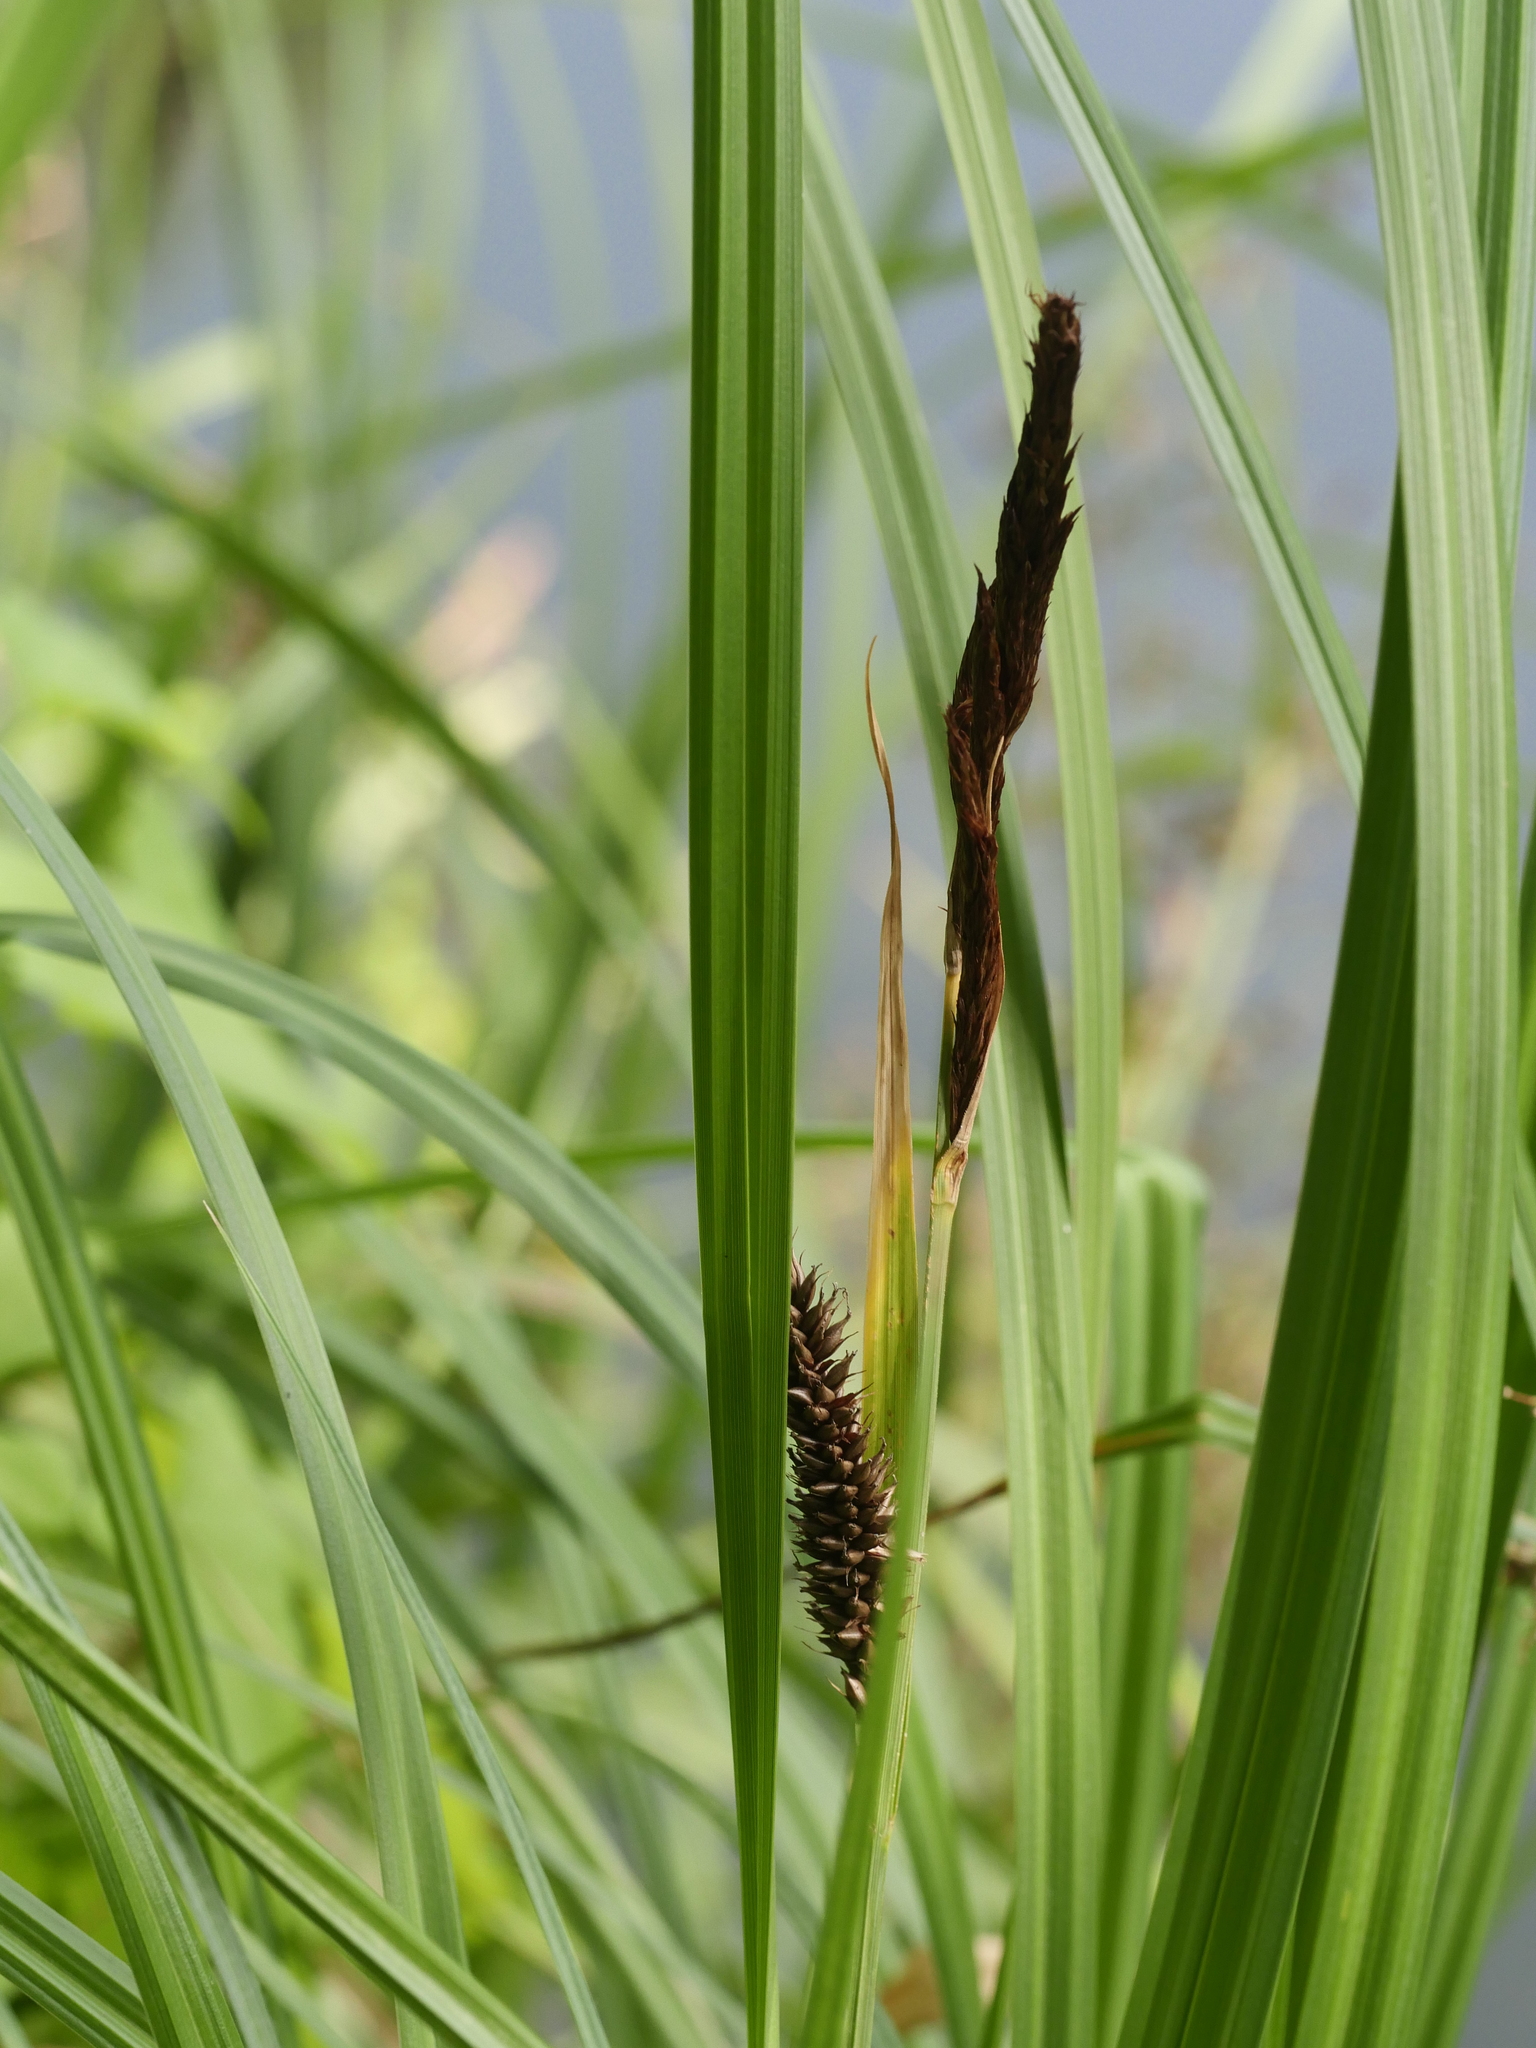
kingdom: Plantae
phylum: Tracheophyta
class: Liliopsida
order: Poales
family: Cyperaceae
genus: Carex
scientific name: Carex riparia
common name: Greater pond-sedge
